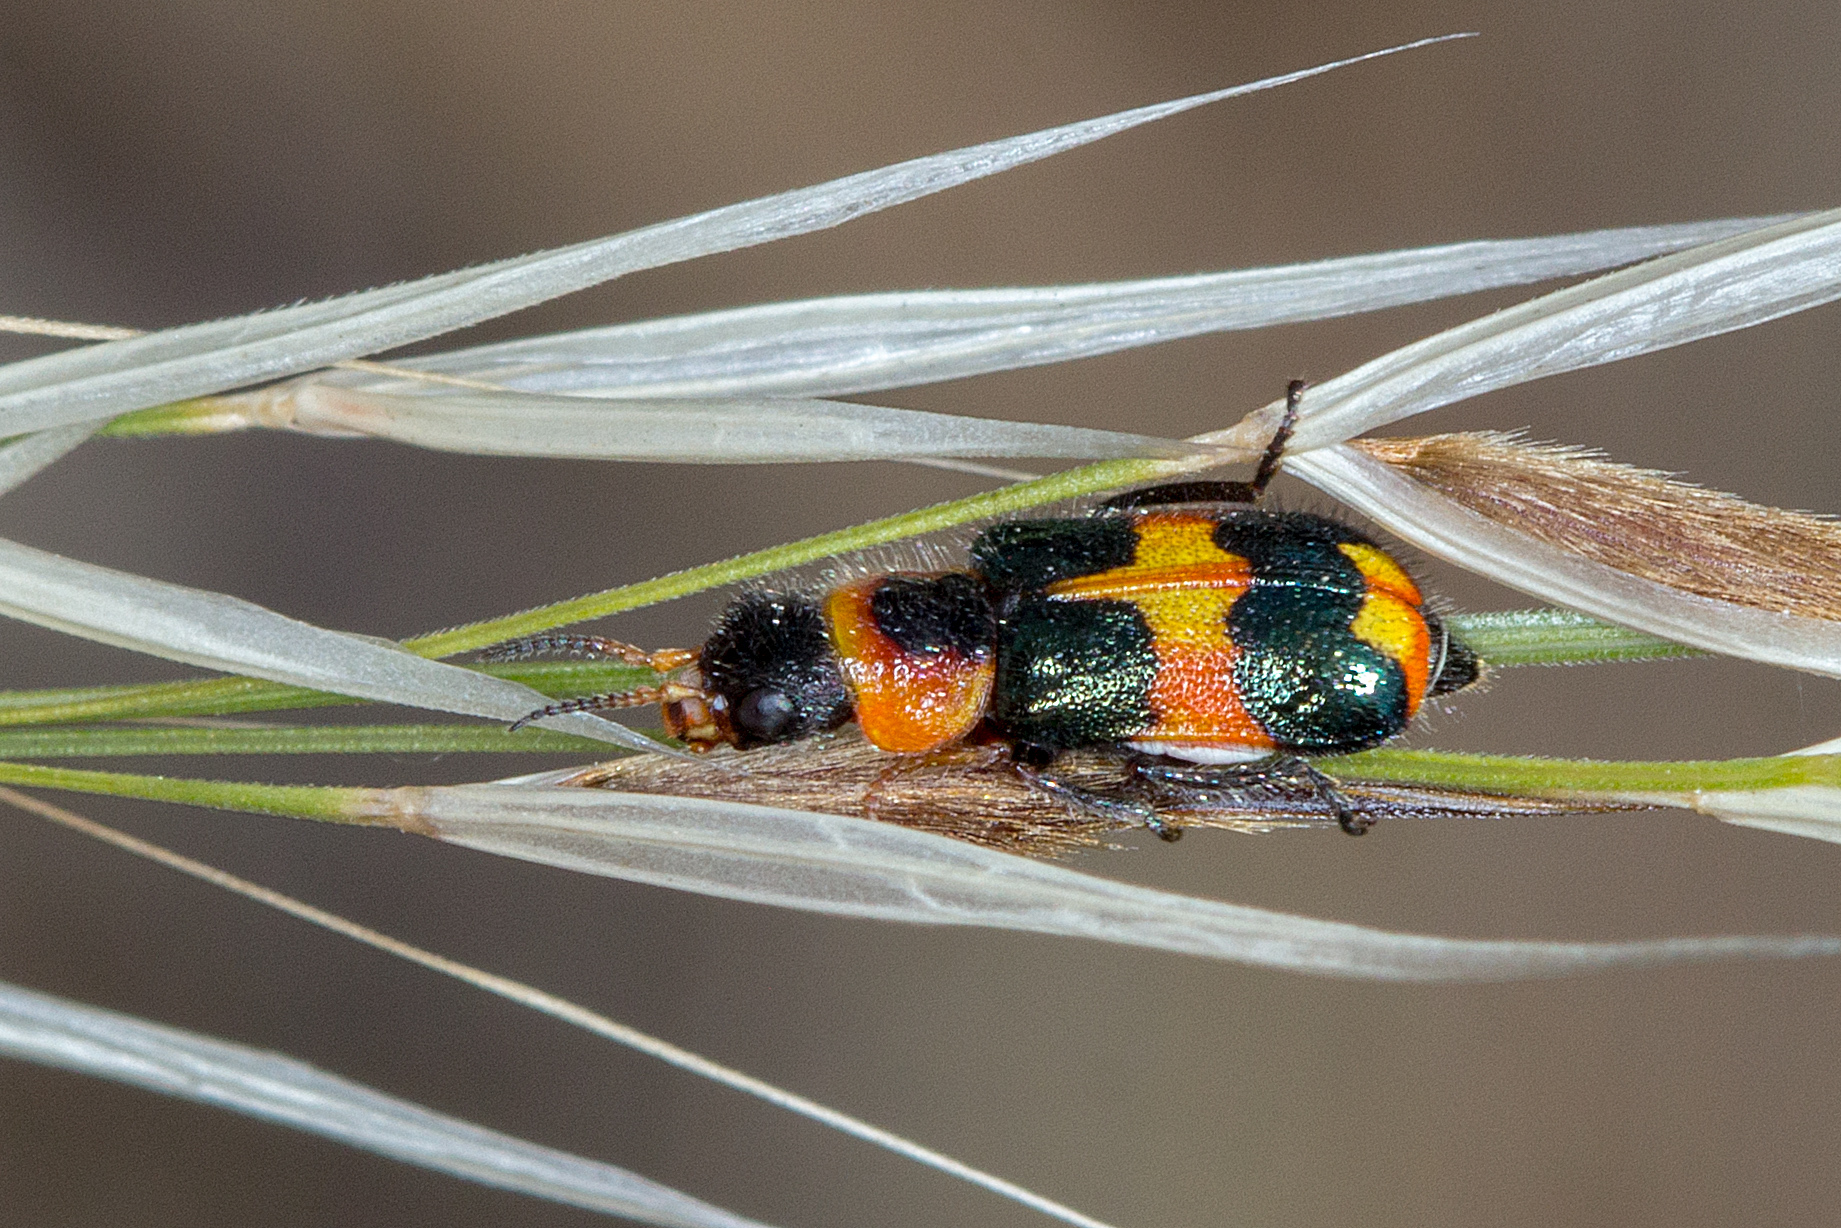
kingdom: Animalia
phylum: Arthropoda
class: Insecta
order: Coleoptera
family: Melyridae
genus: Dicranolaius
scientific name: Dicranolaius
